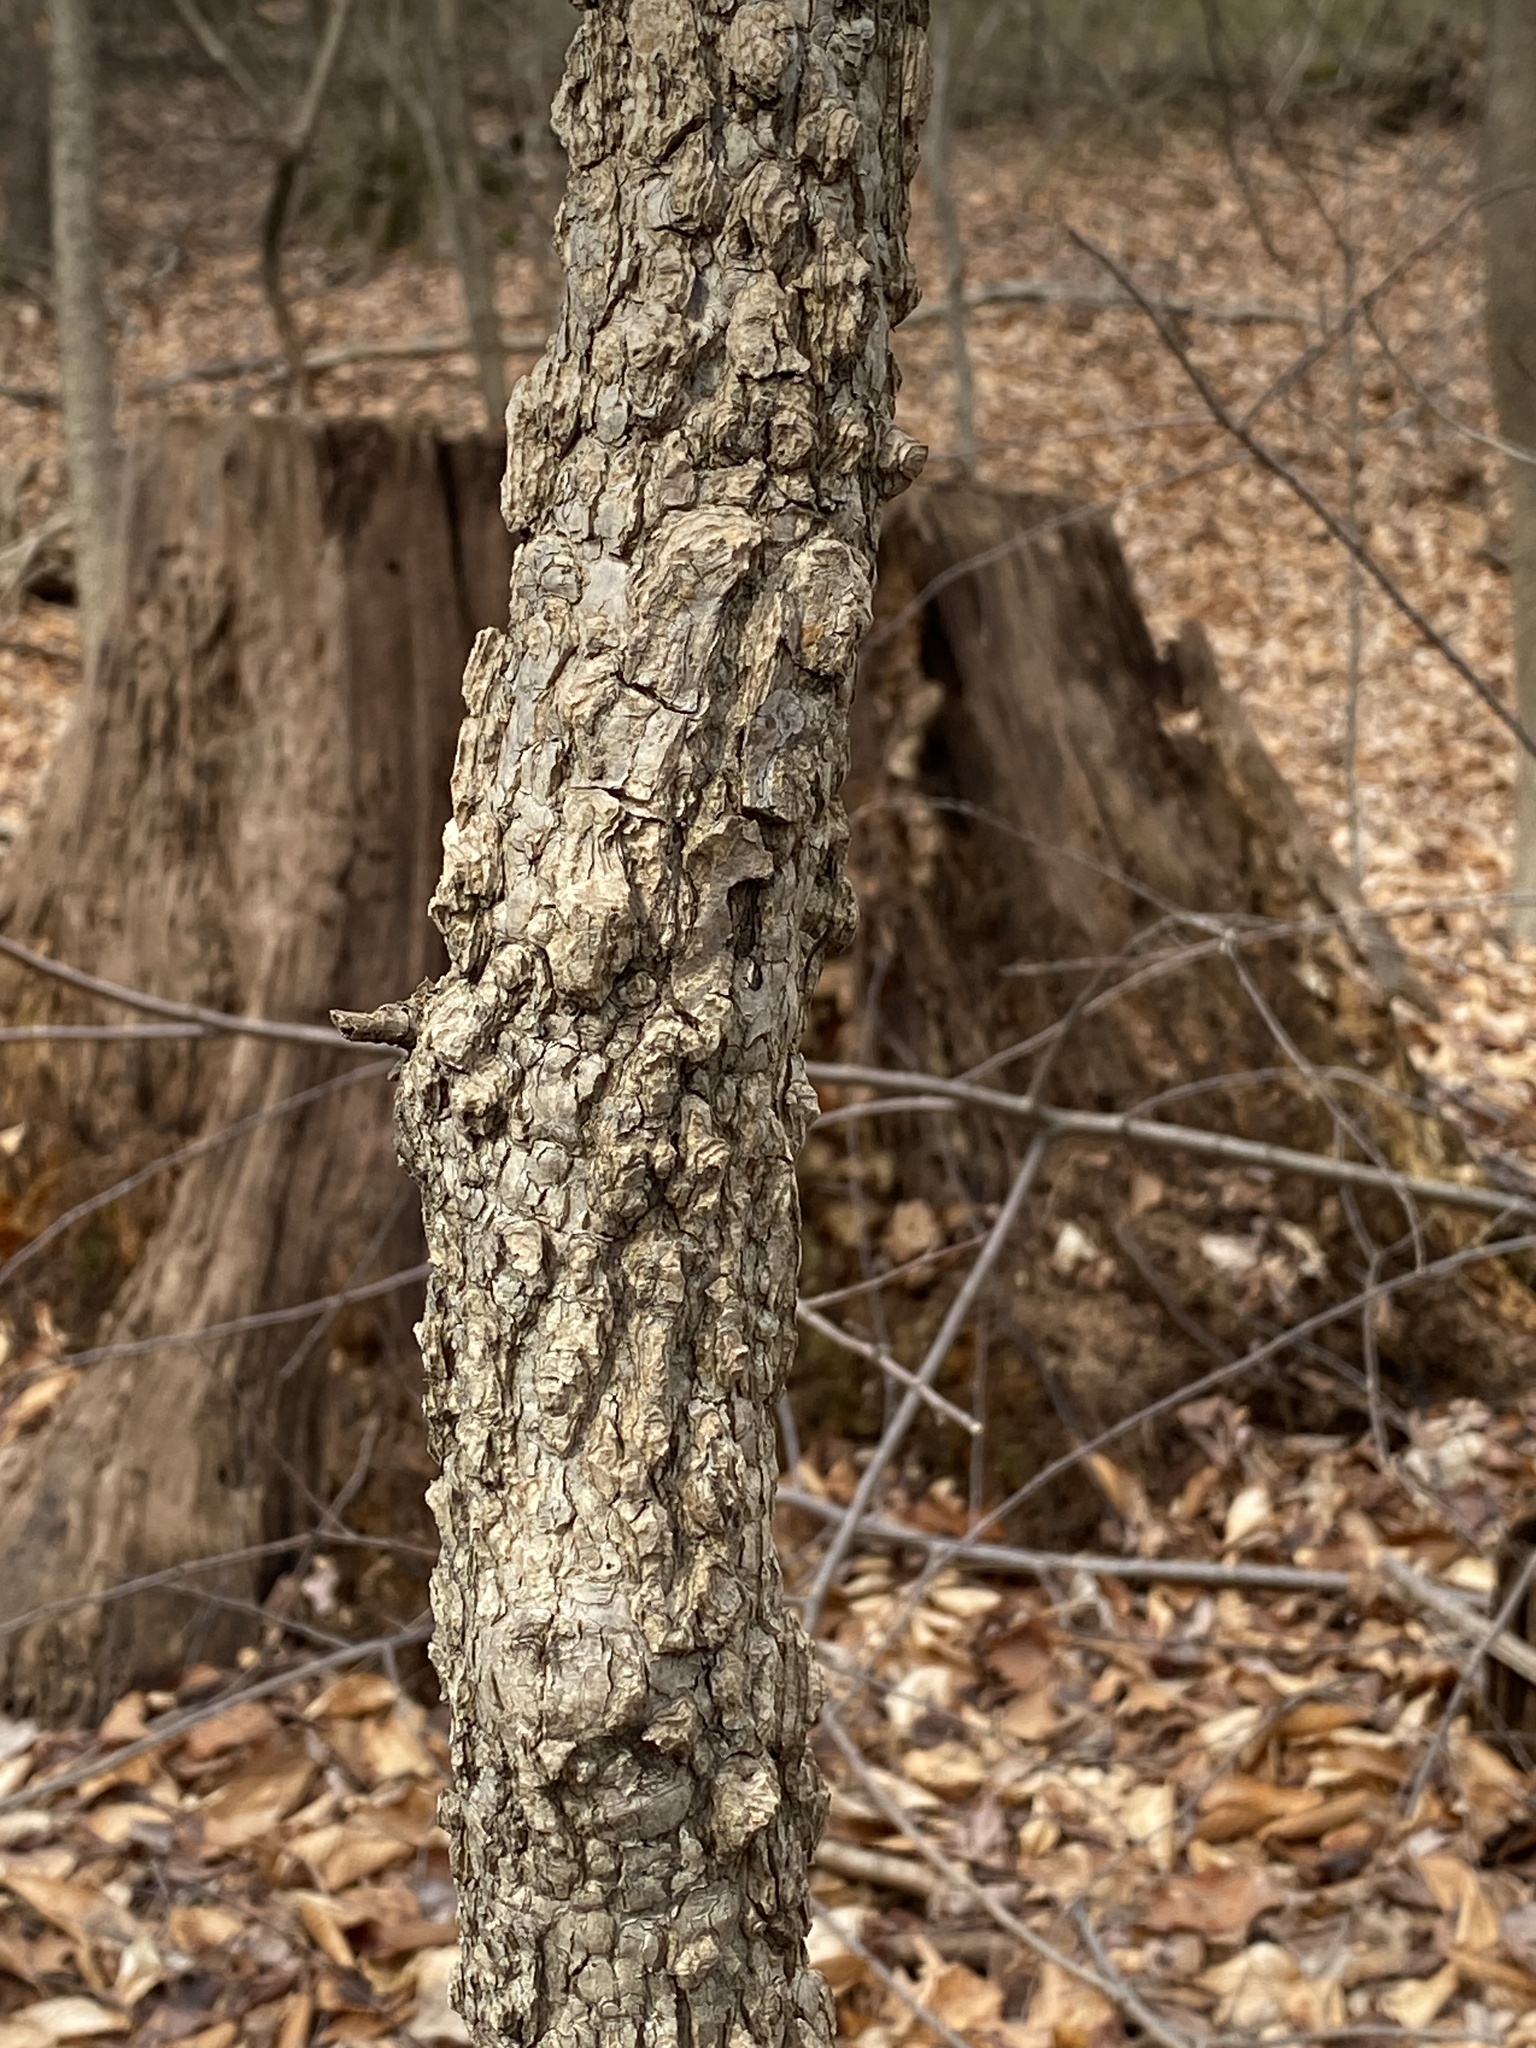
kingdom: Plantae
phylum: Tracheophyta
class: Magnoliopsida
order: Saxifragales
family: Altingiaceae
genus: Liquidambar
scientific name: Liquidambar styraciflua
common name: Sweet gum
